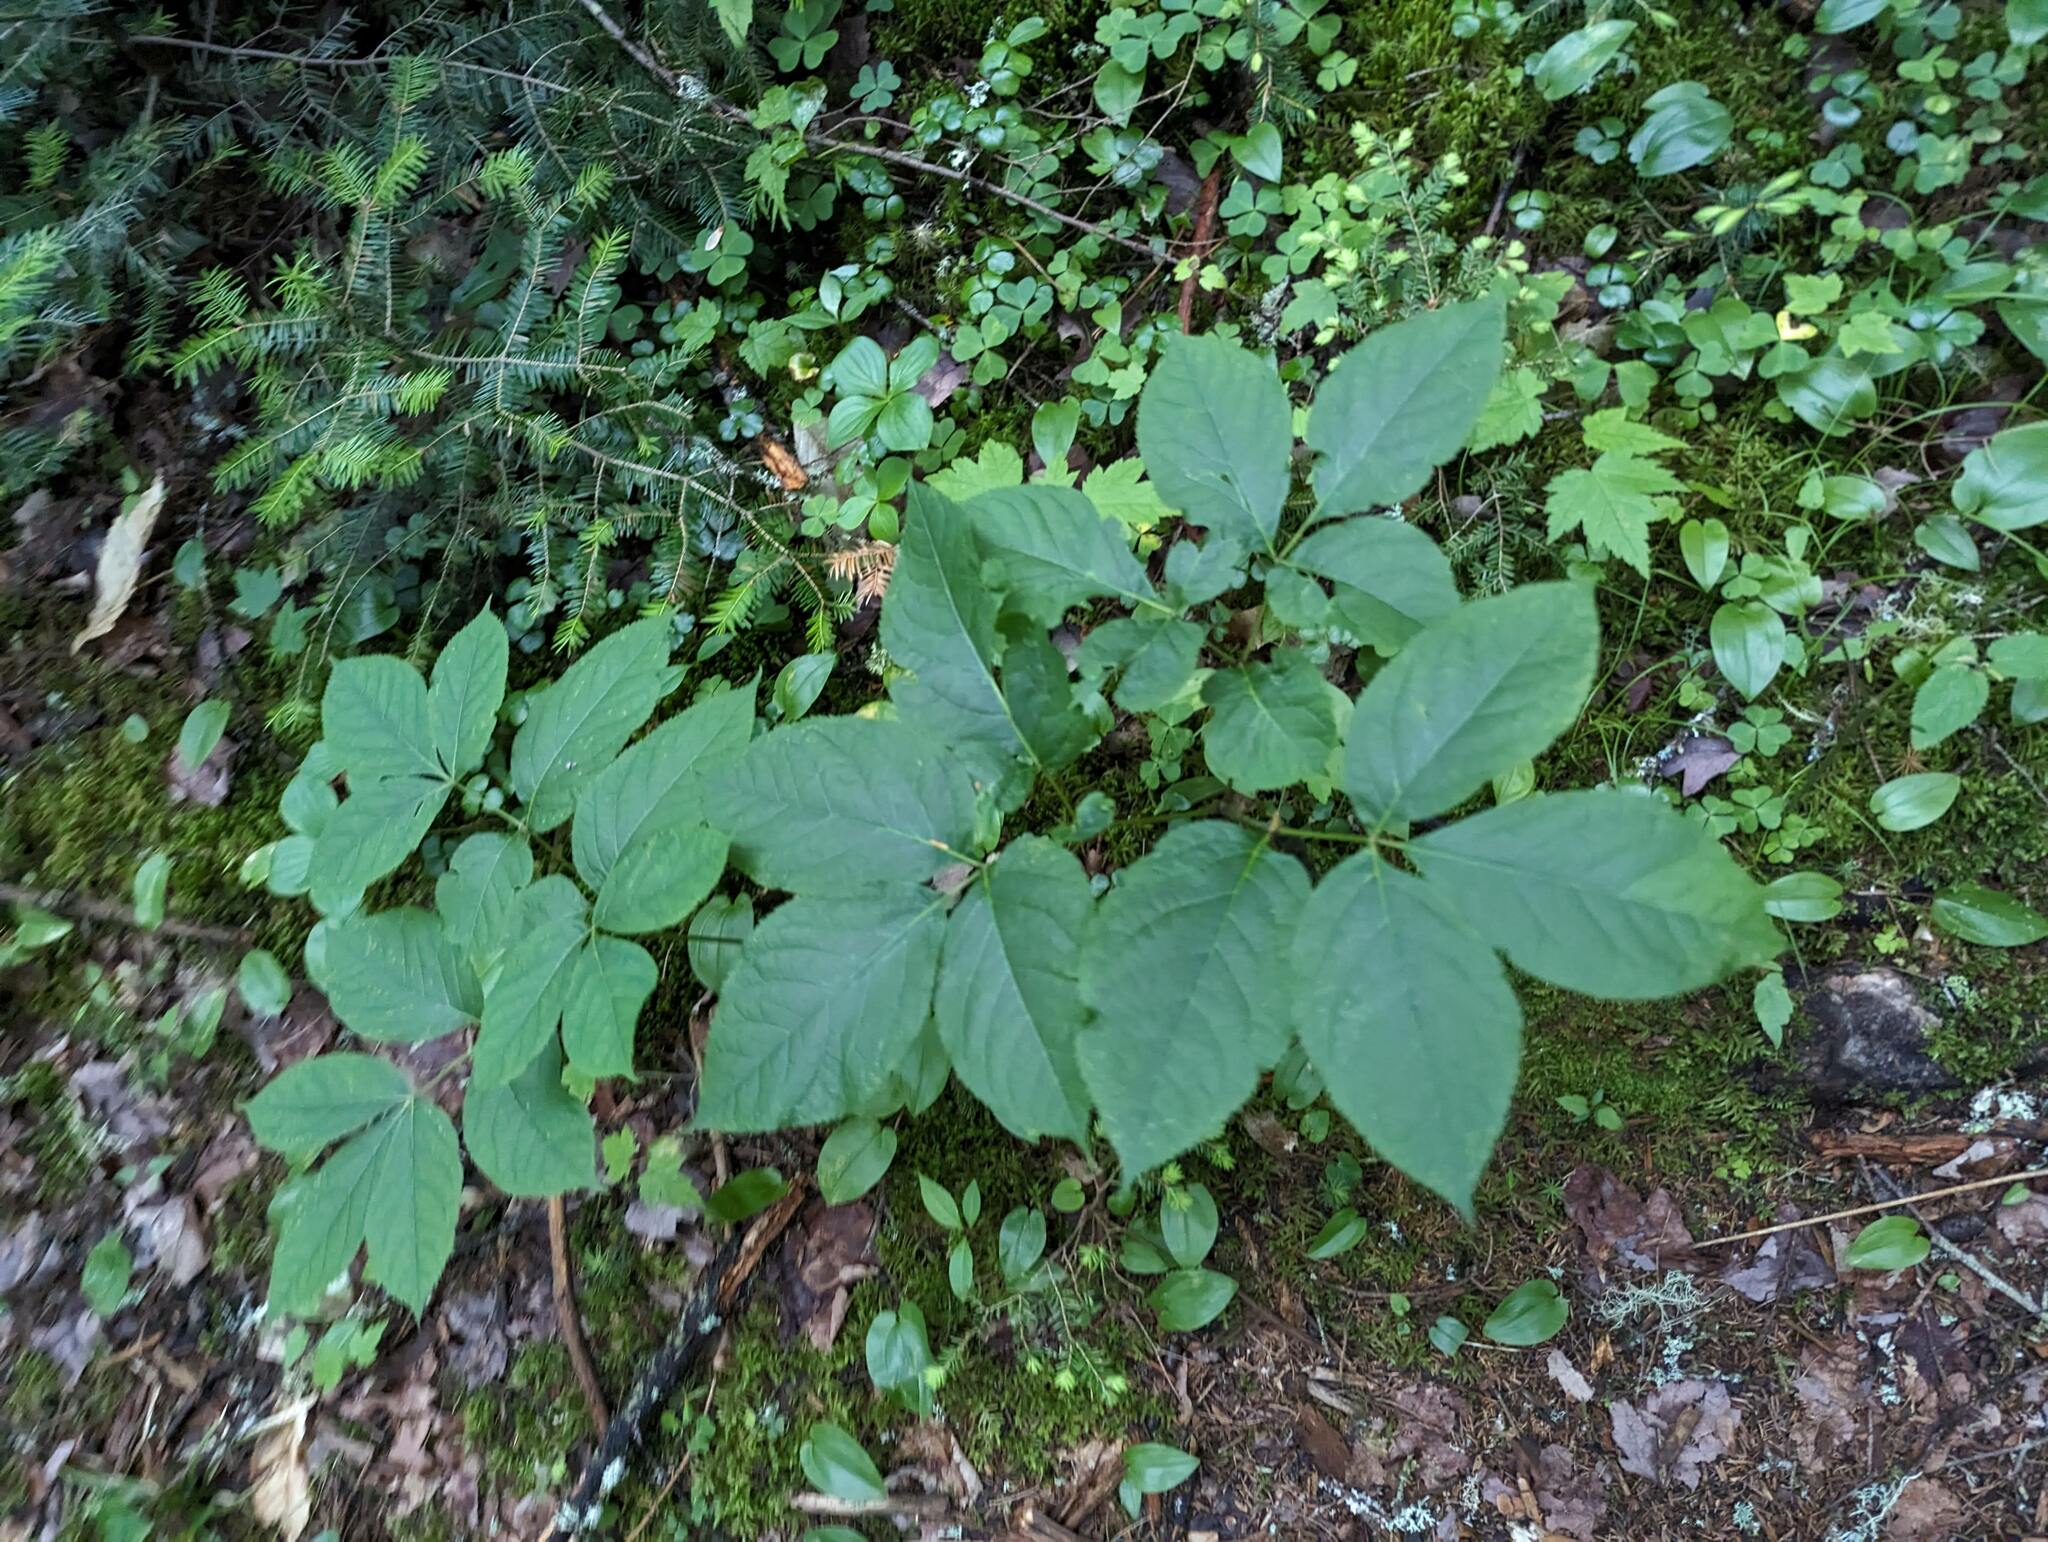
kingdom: Plantae
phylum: Tracheophyta
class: Magnoliopsida
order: Apiales
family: Araliaceae
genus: Aralia
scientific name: Aralia nudicaulis
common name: Wild sarsaparilla
